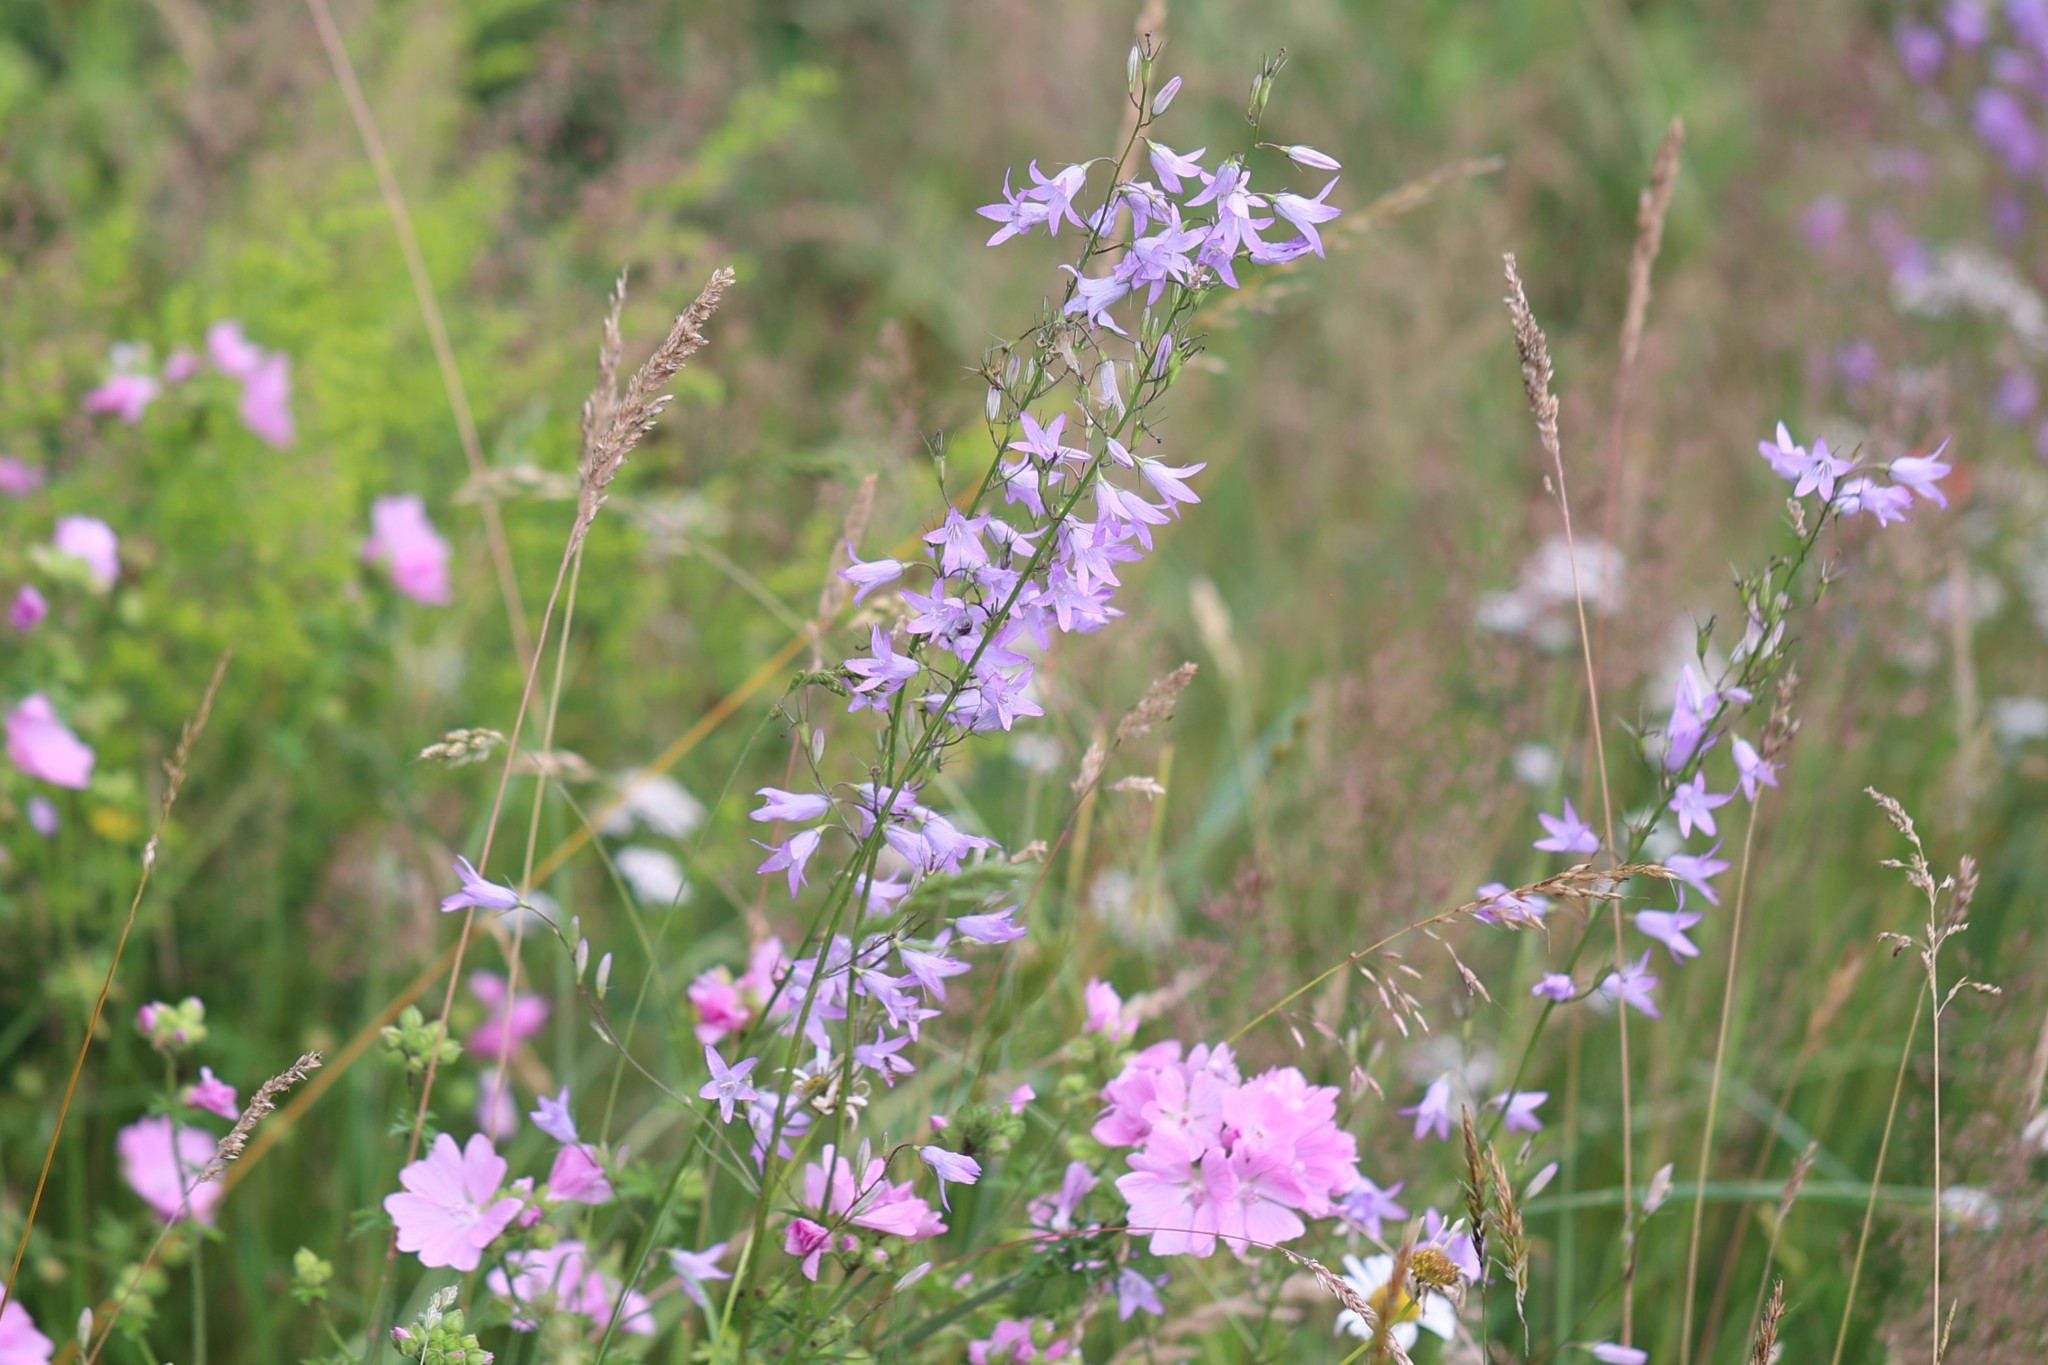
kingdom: Plantae
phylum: Tracheophyta
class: Magnoliopsida
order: Asterales
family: Campanulaceae
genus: Campanula
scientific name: Campanula rapunculus
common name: Rampion bellflower
